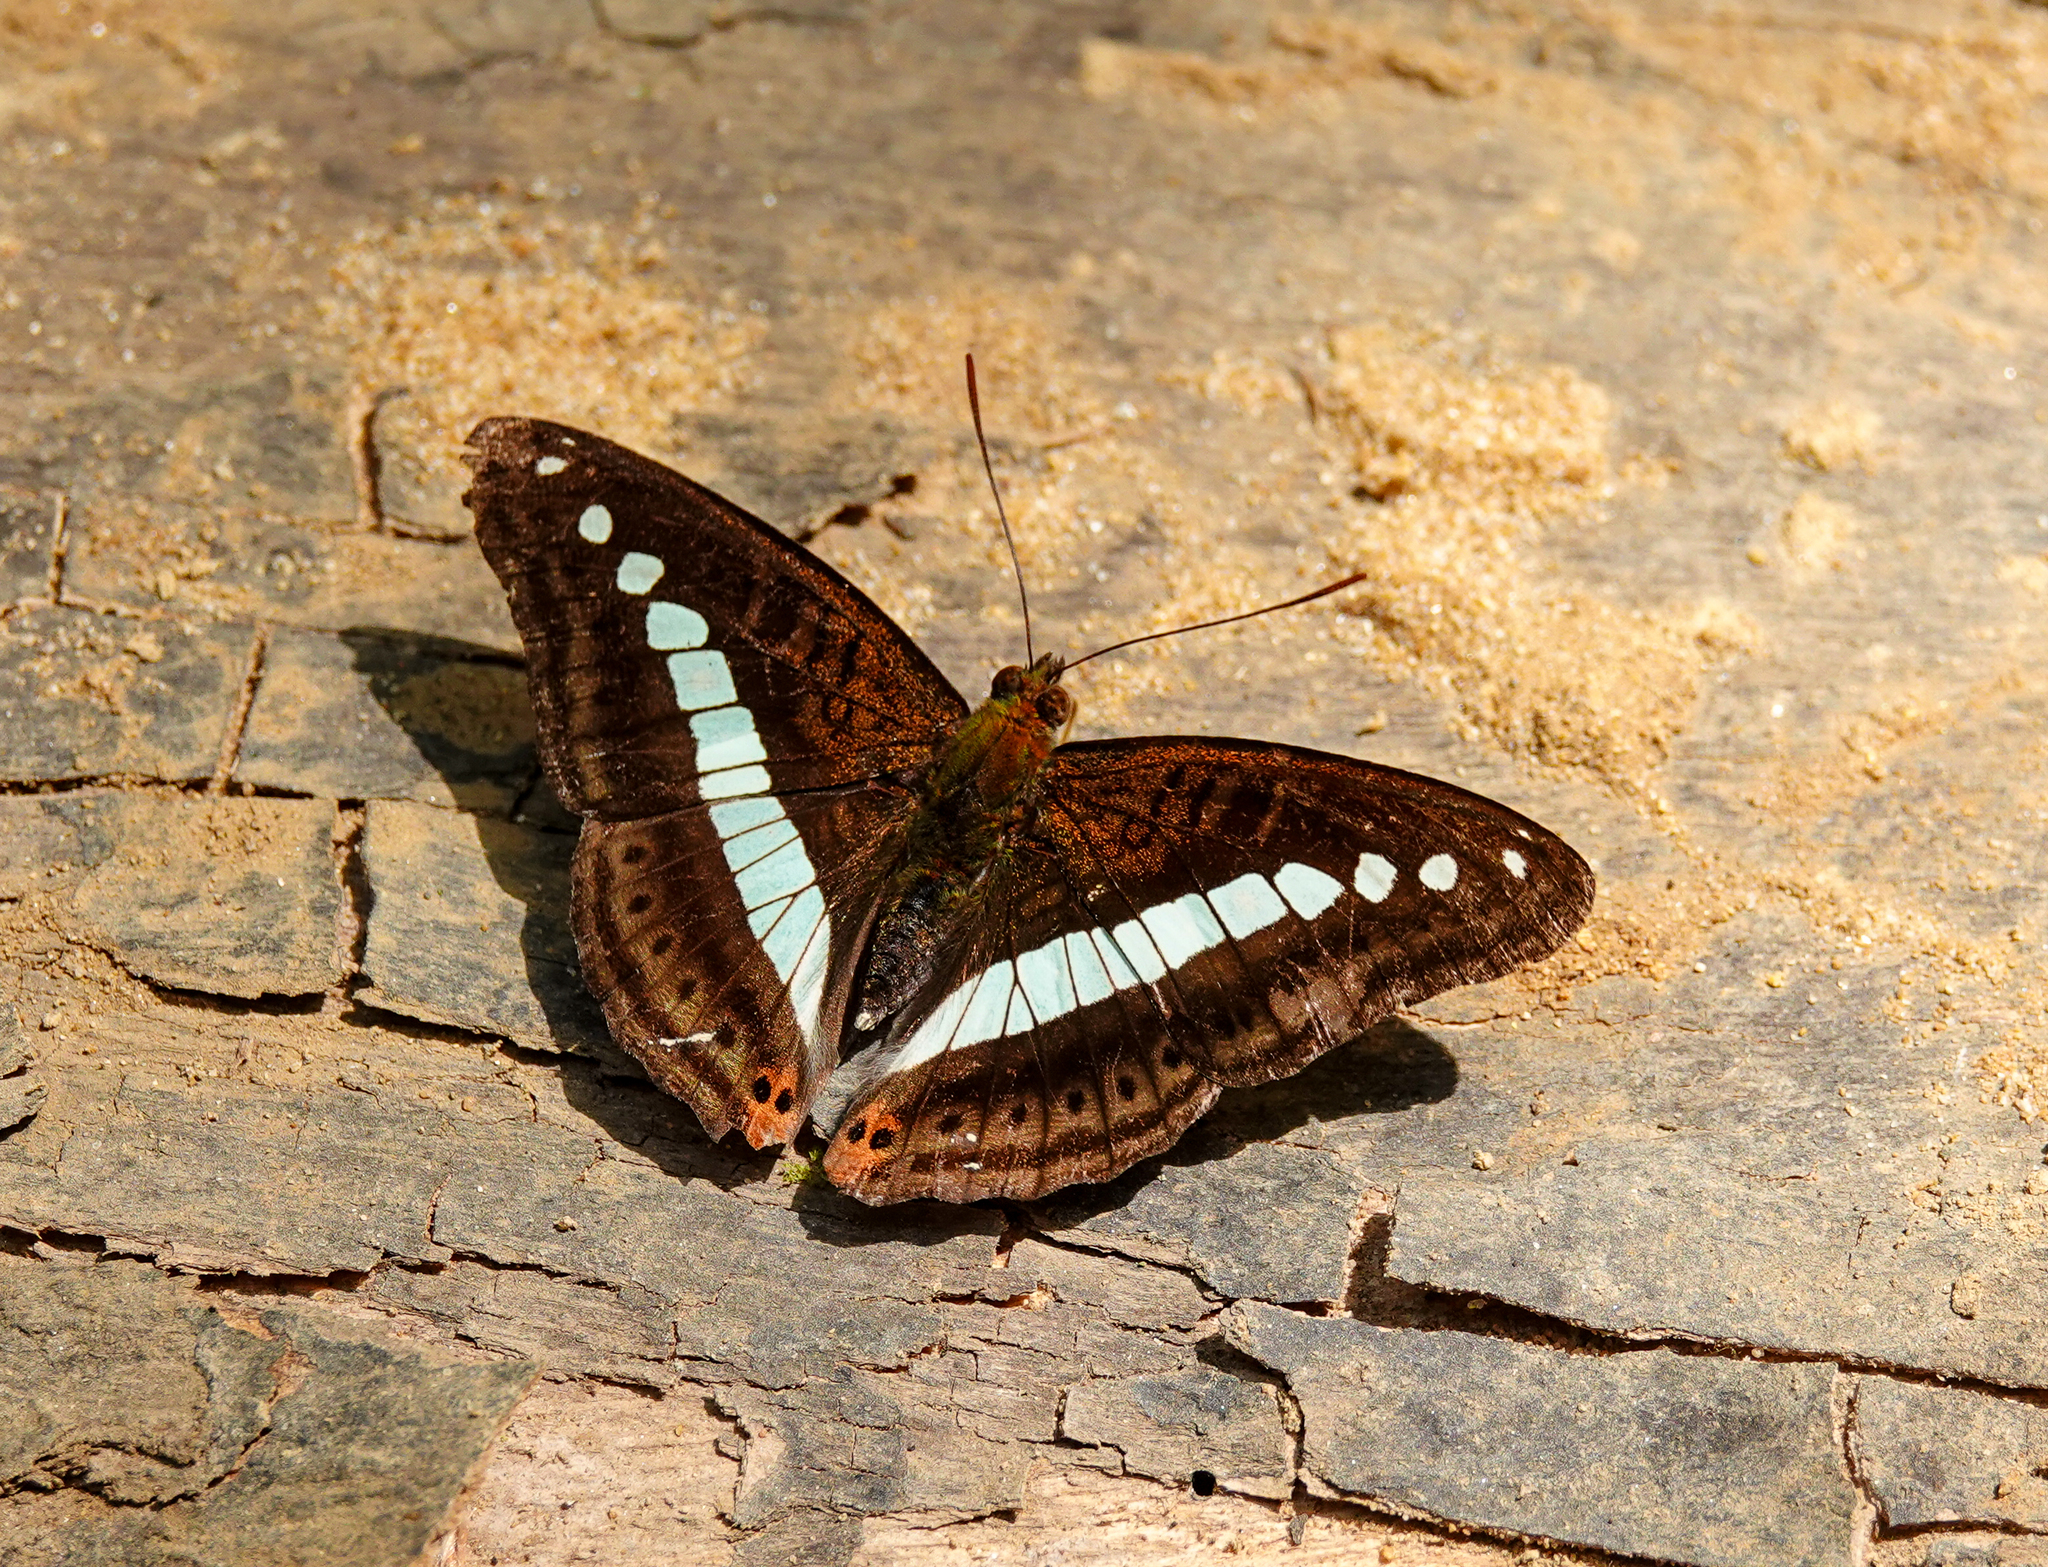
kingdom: Animalia
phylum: Arthropoda
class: Insecta
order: Lepidoptera
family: Nymphalidae
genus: Limenitis
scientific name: Limenitis Sumalia daraxa
